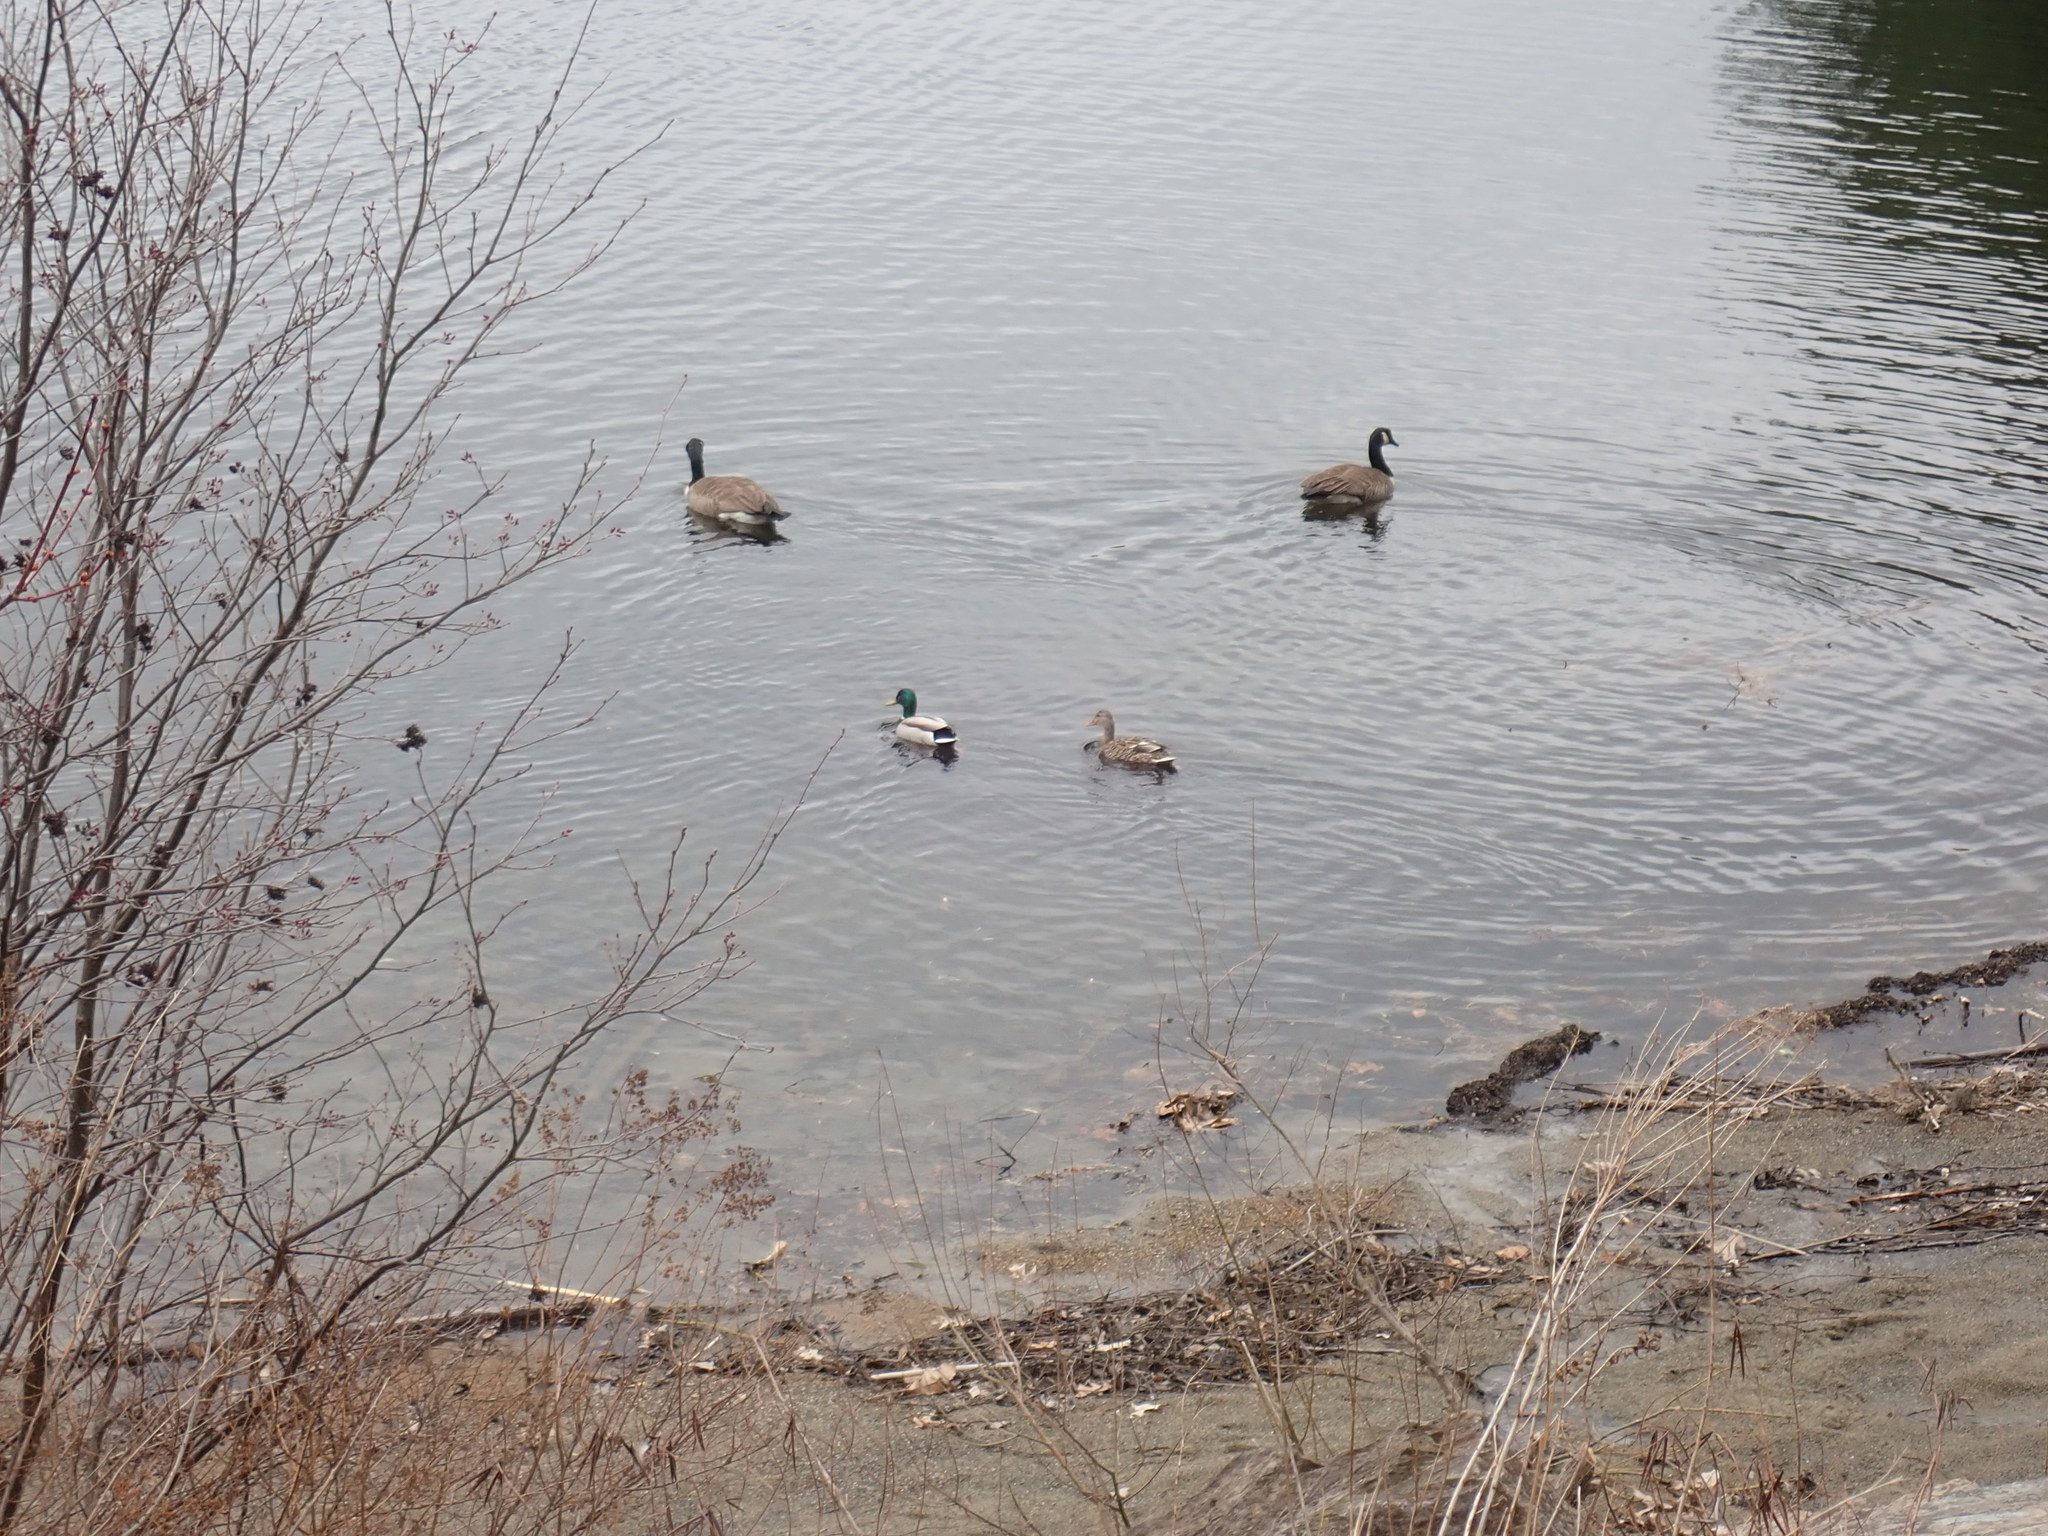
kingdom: Animalia
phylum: Chordata
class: Aves
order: Anseriformes
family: Anatidae
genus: Anas
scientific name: Anas platyrhynchos
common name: Mallard
